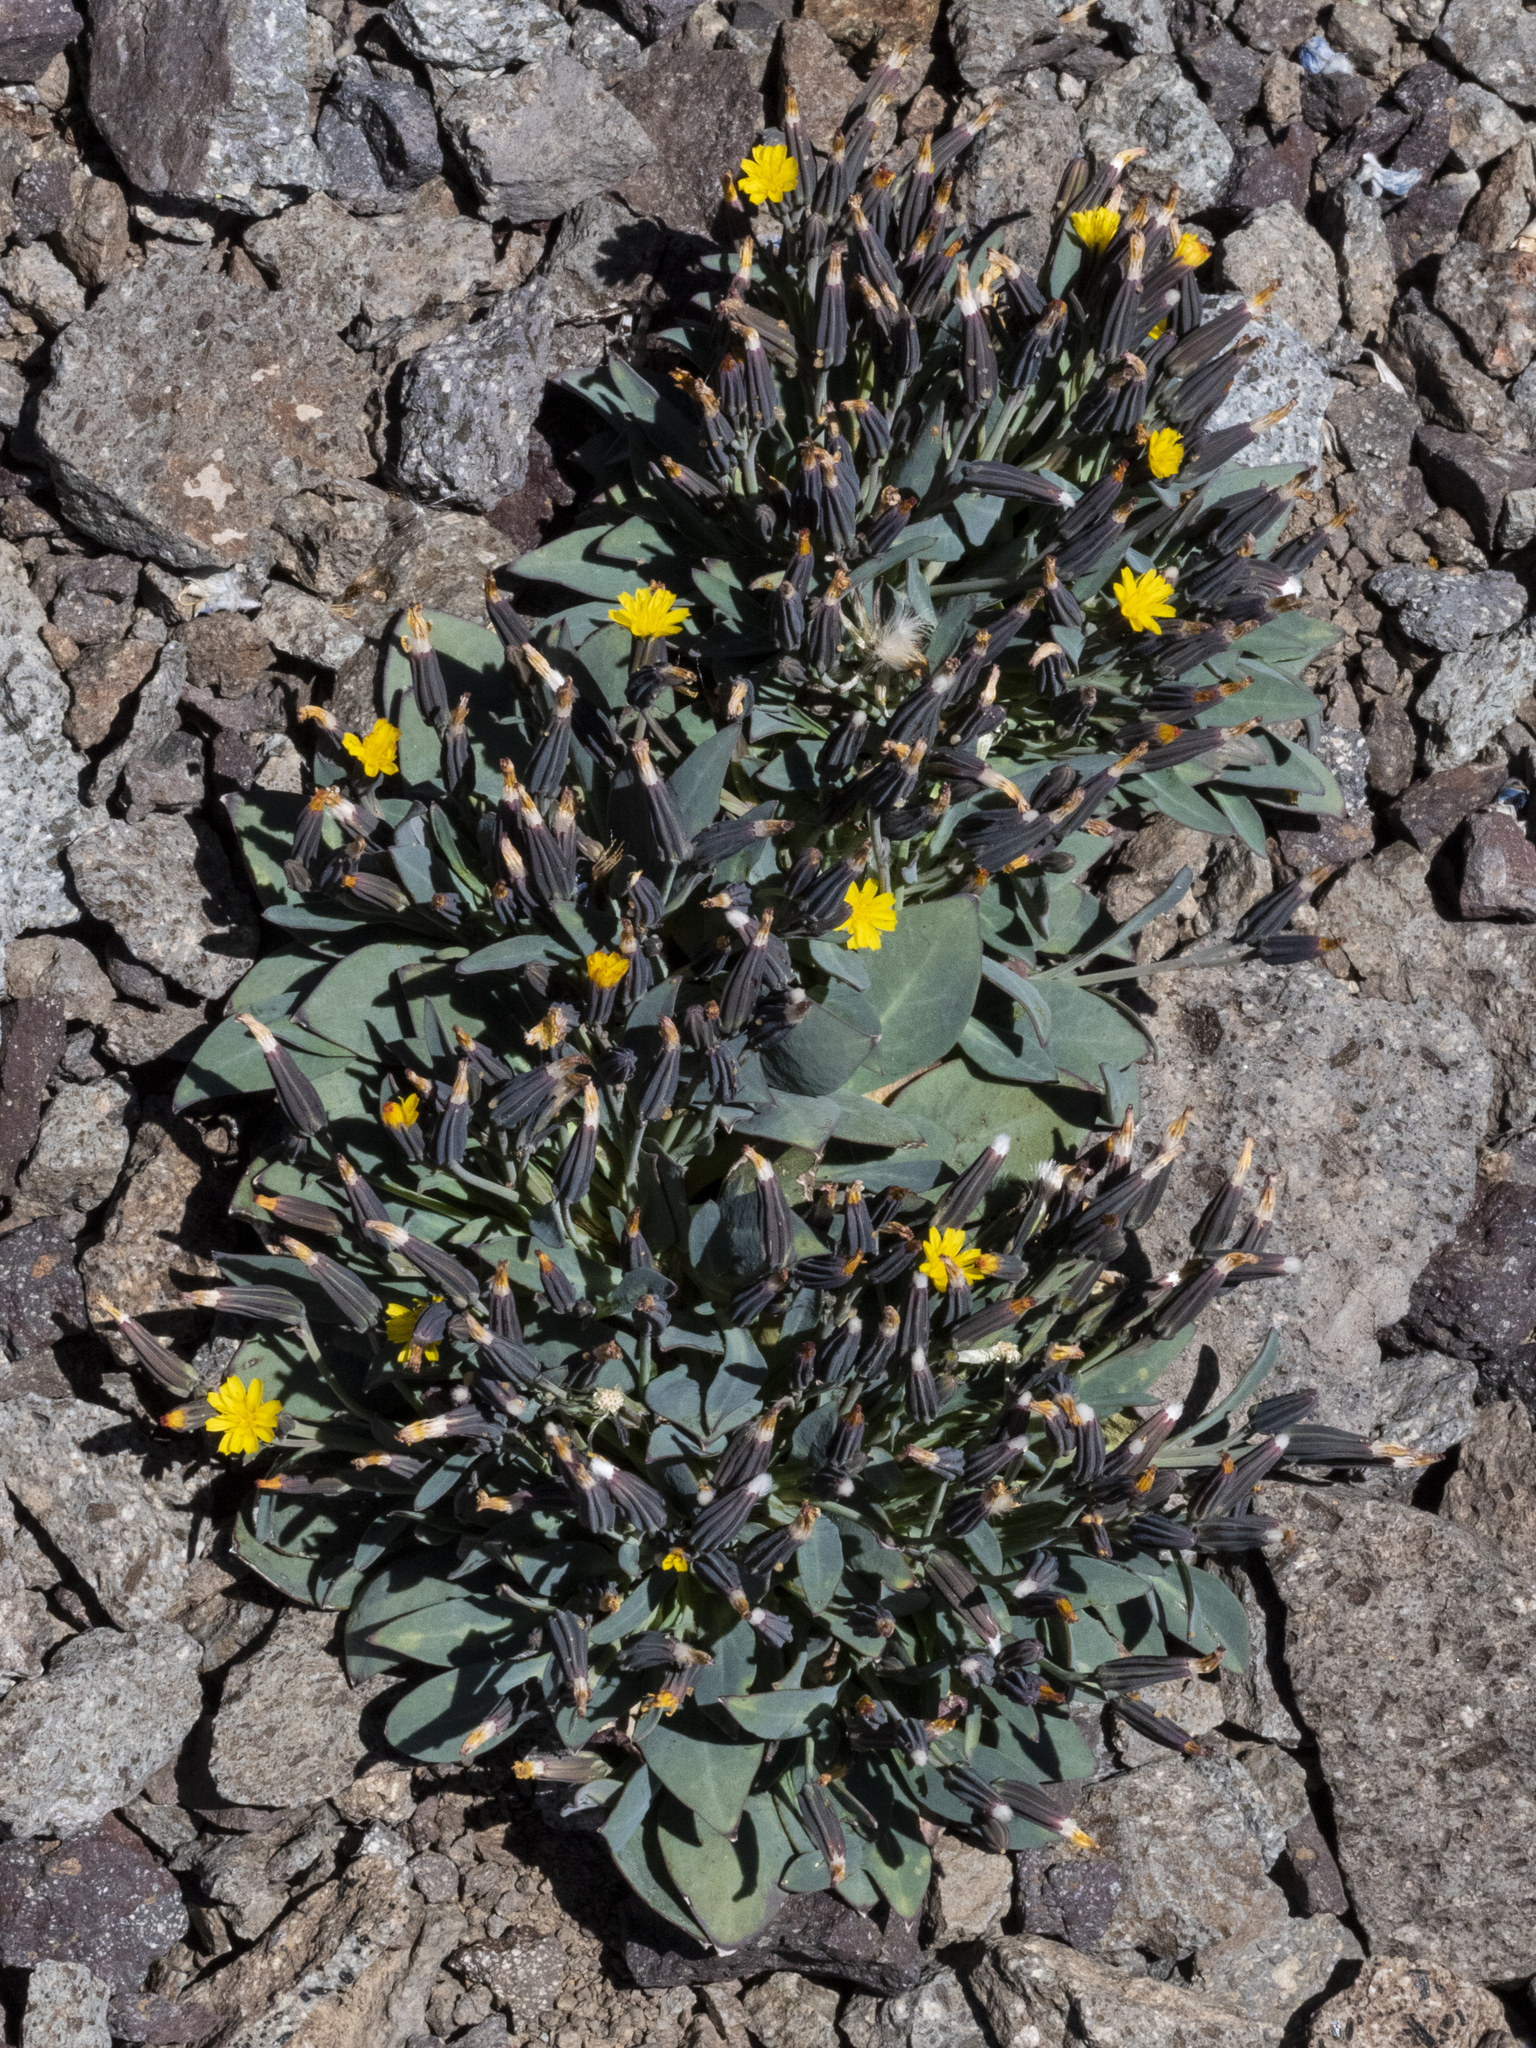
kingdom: Plantae
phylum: Tracheophyta
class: Magnoliopsida
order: Asterales
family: Asteraceae
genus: Askellia
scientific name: Askellia pygmaea
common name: Dwarf alpine hawksbeard
